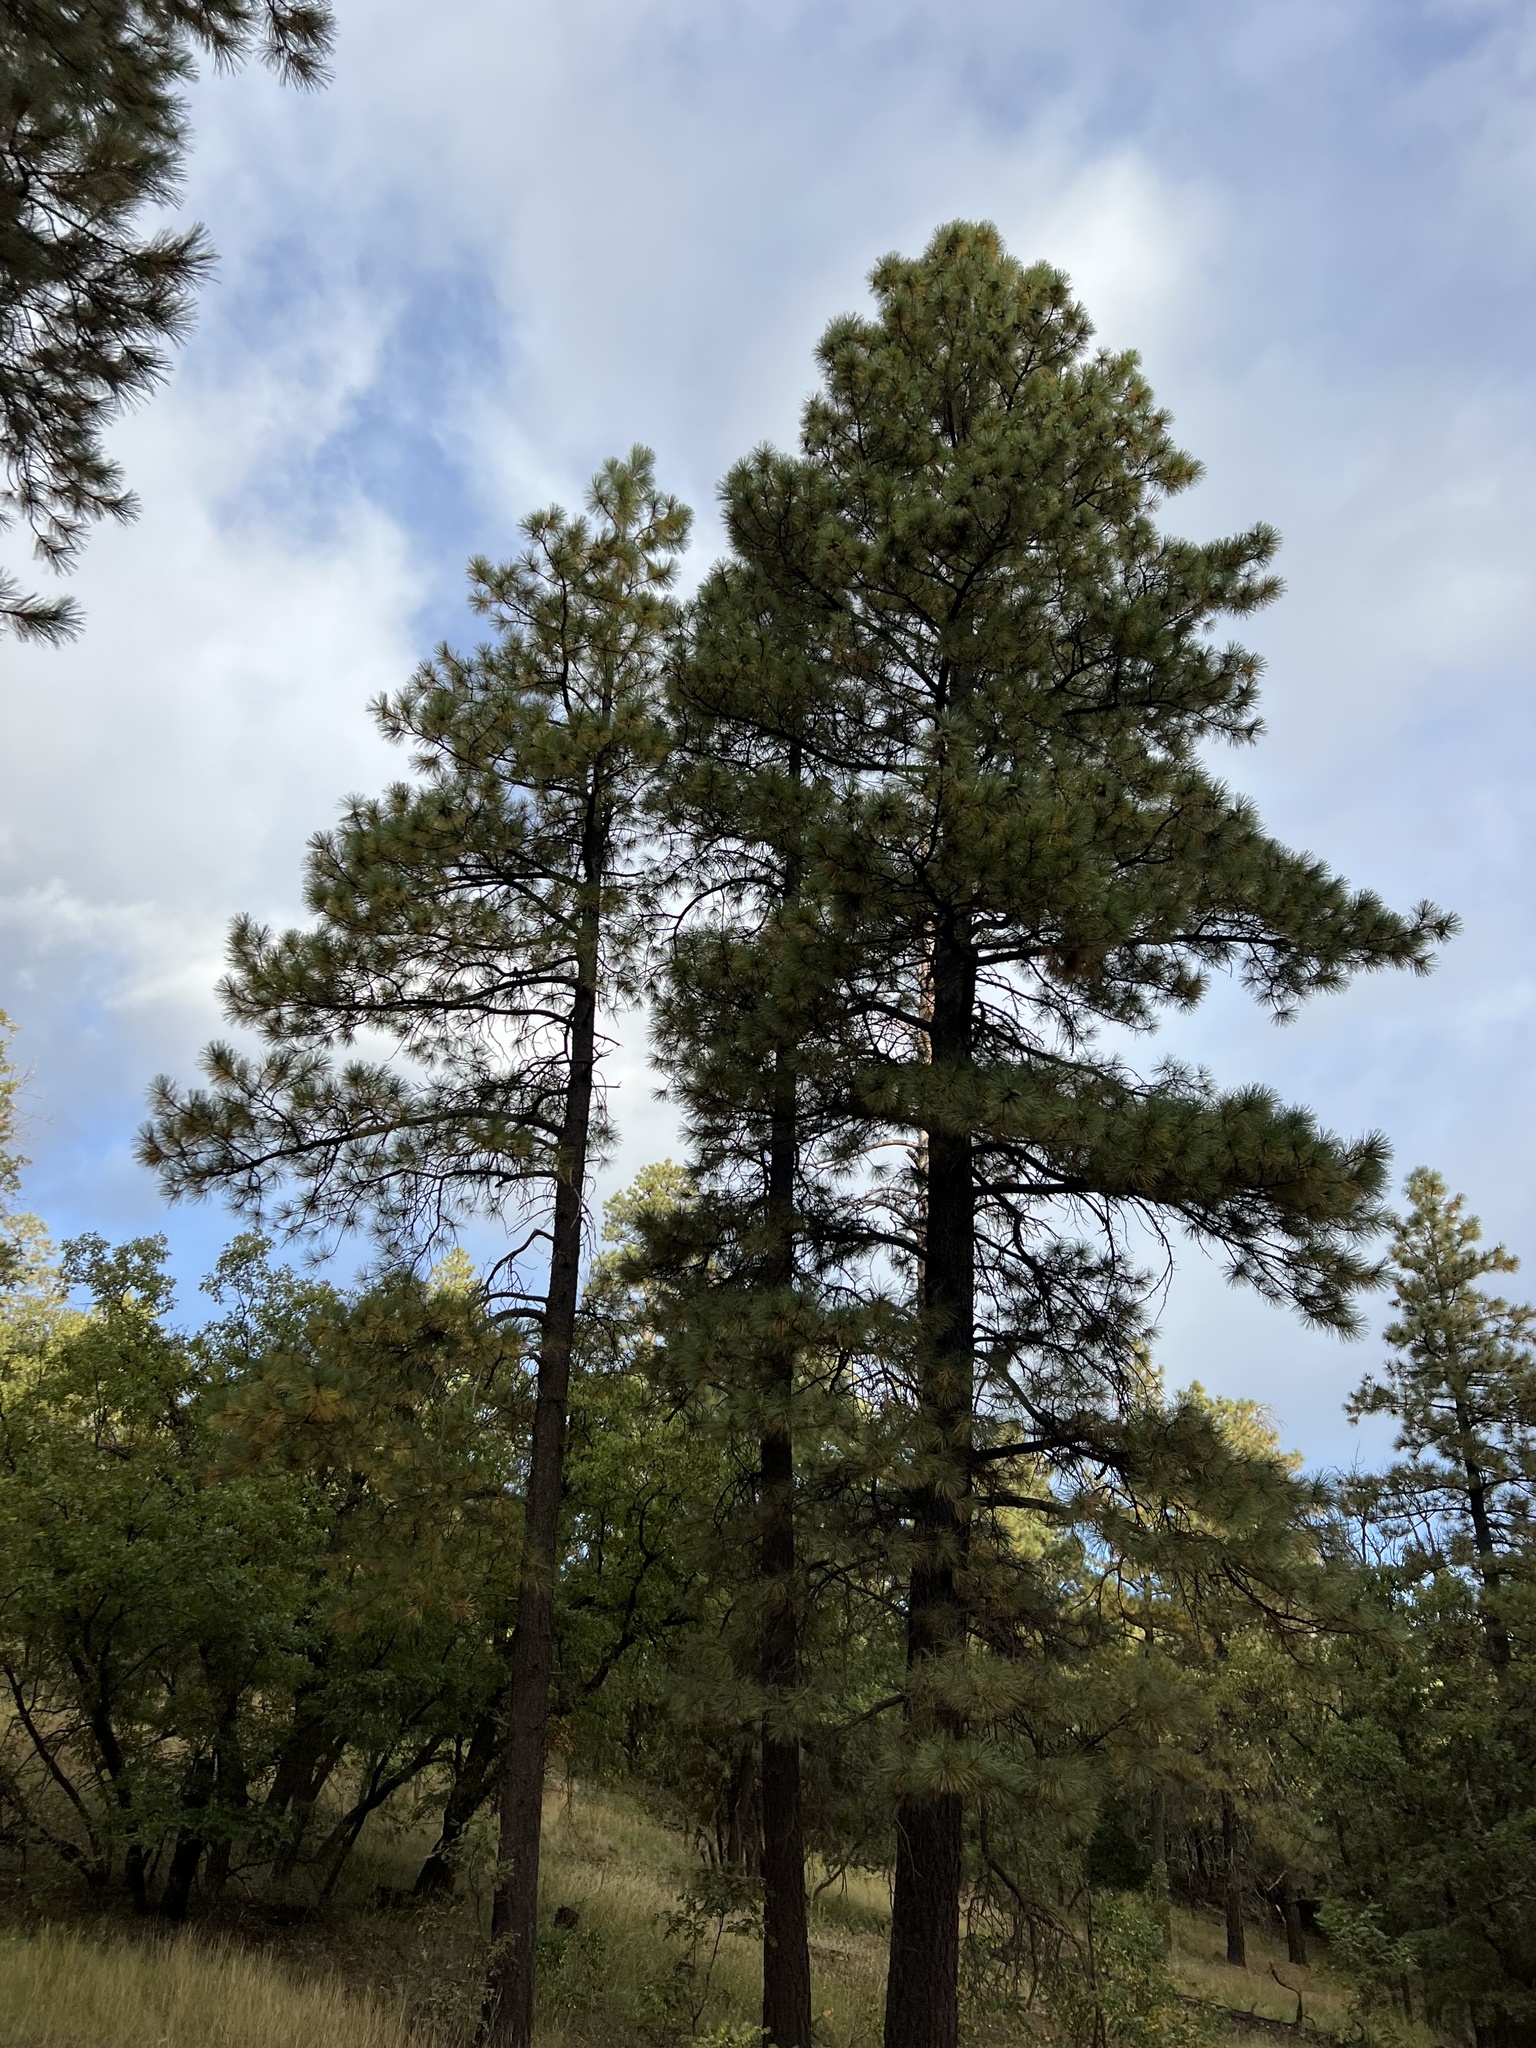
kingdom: Plantae
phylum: Tracheophyta
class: Pinopsida
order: Pinales
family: Pinaceae
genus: Pinus
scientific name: Pinus ponderosa
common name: Western yellow-pine
